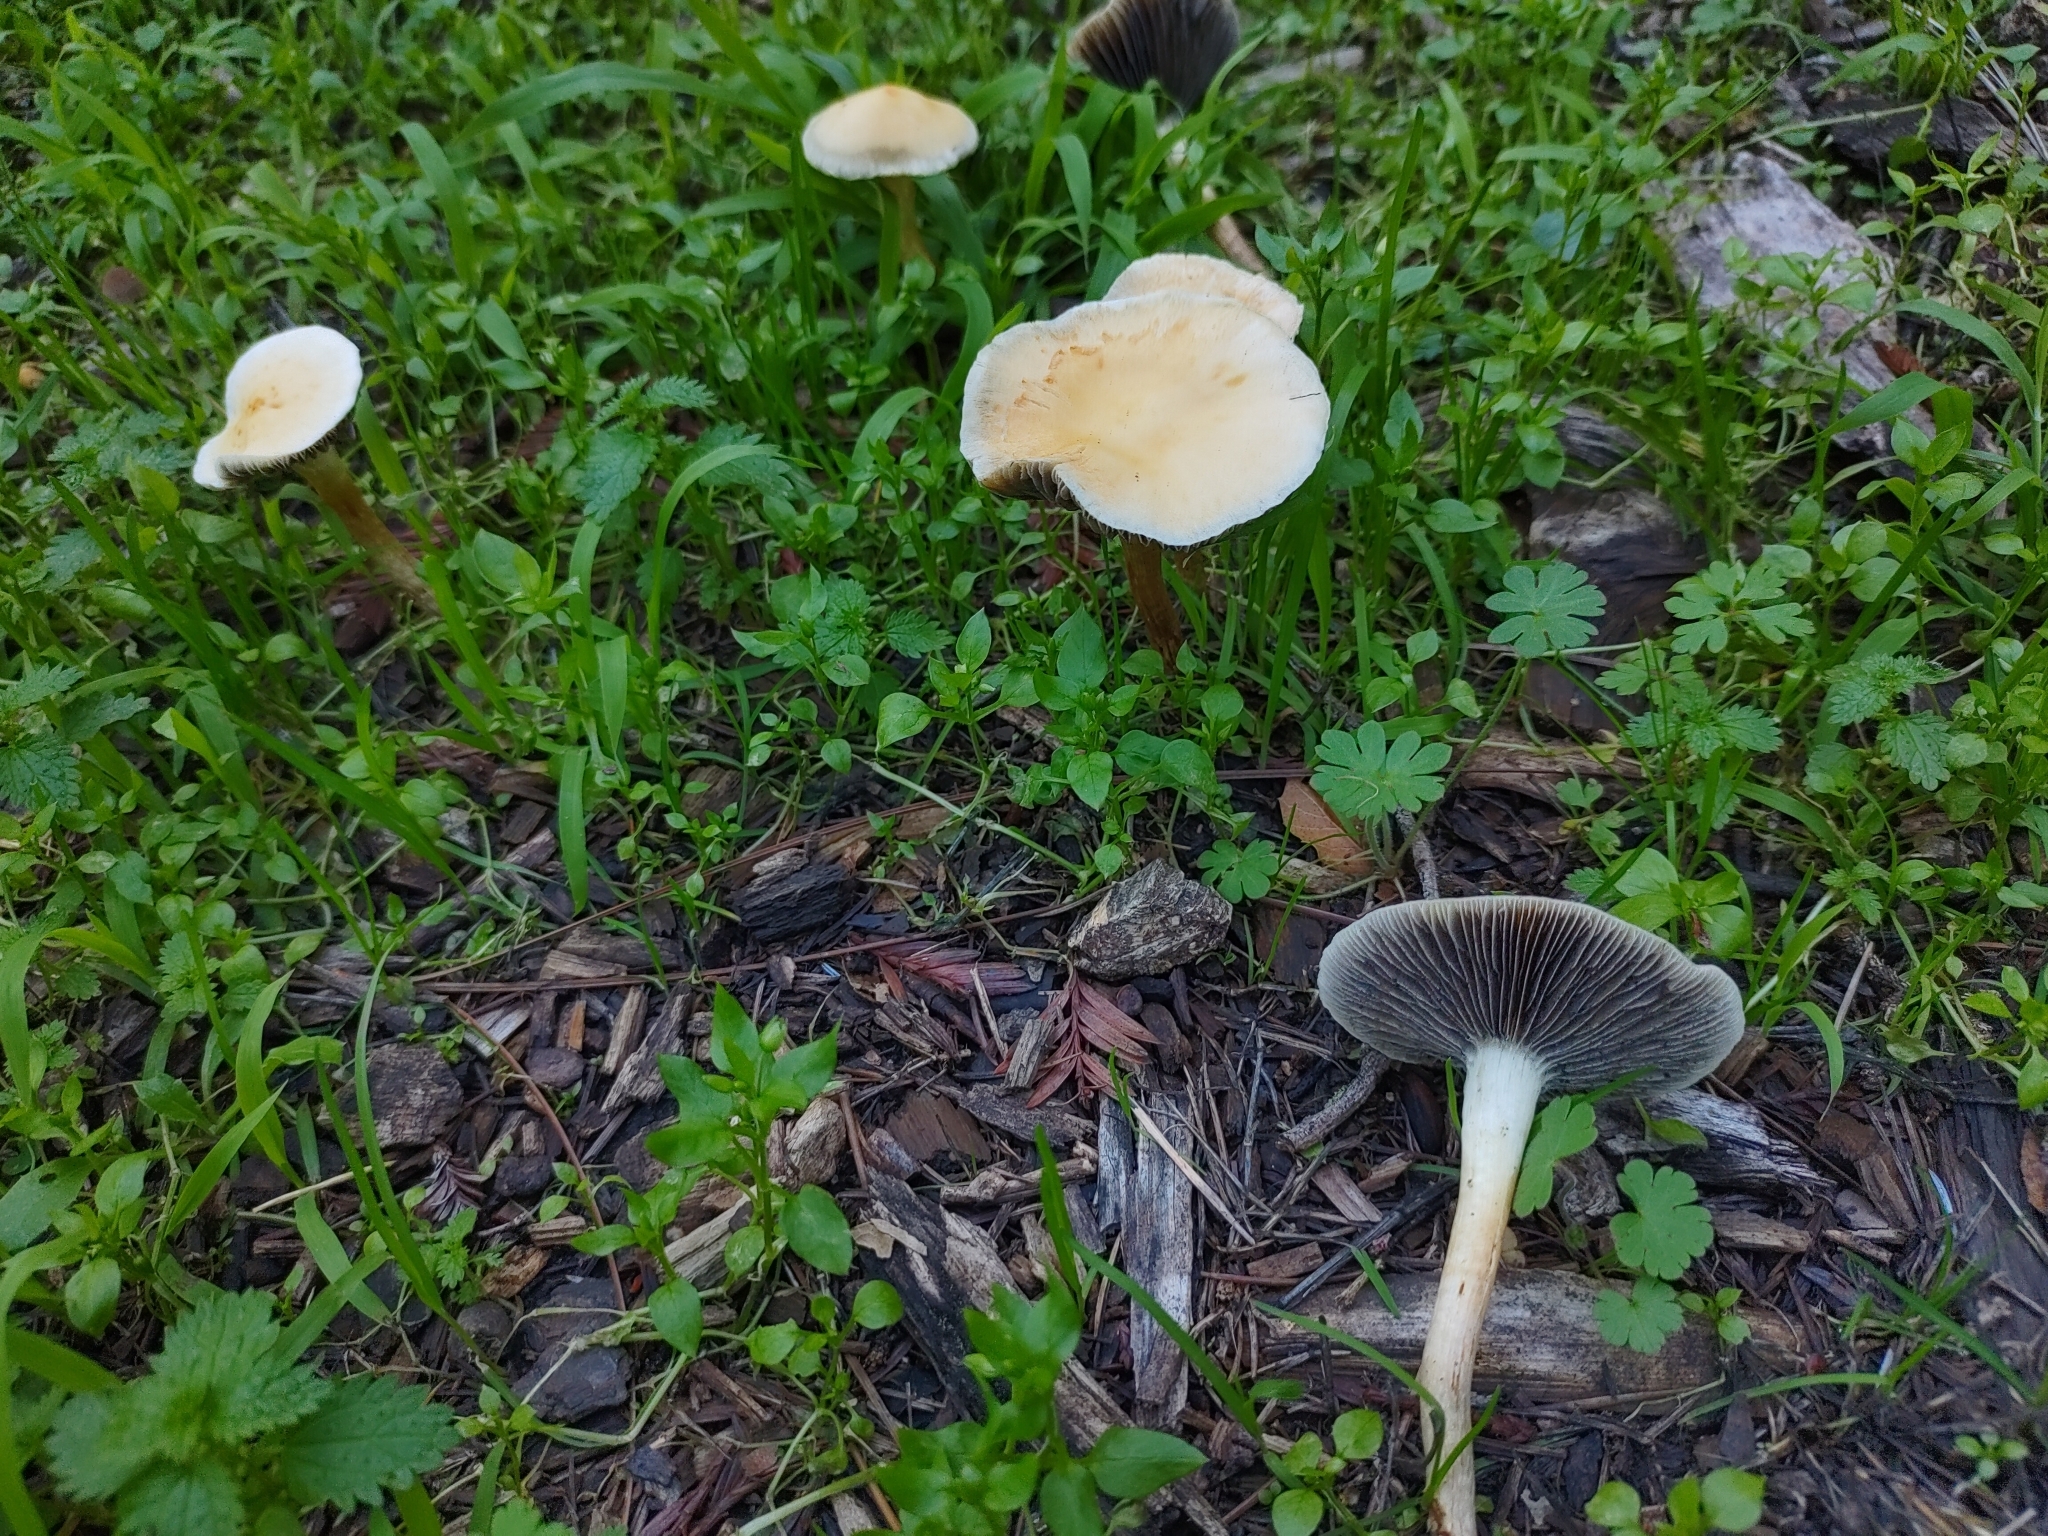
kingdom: Fungi
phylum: Basidiomycota
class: Agaricomycetes
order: Agaricales
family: Strophariaceae
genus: Leratiomyces
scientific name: Leratiomyces percevalii
